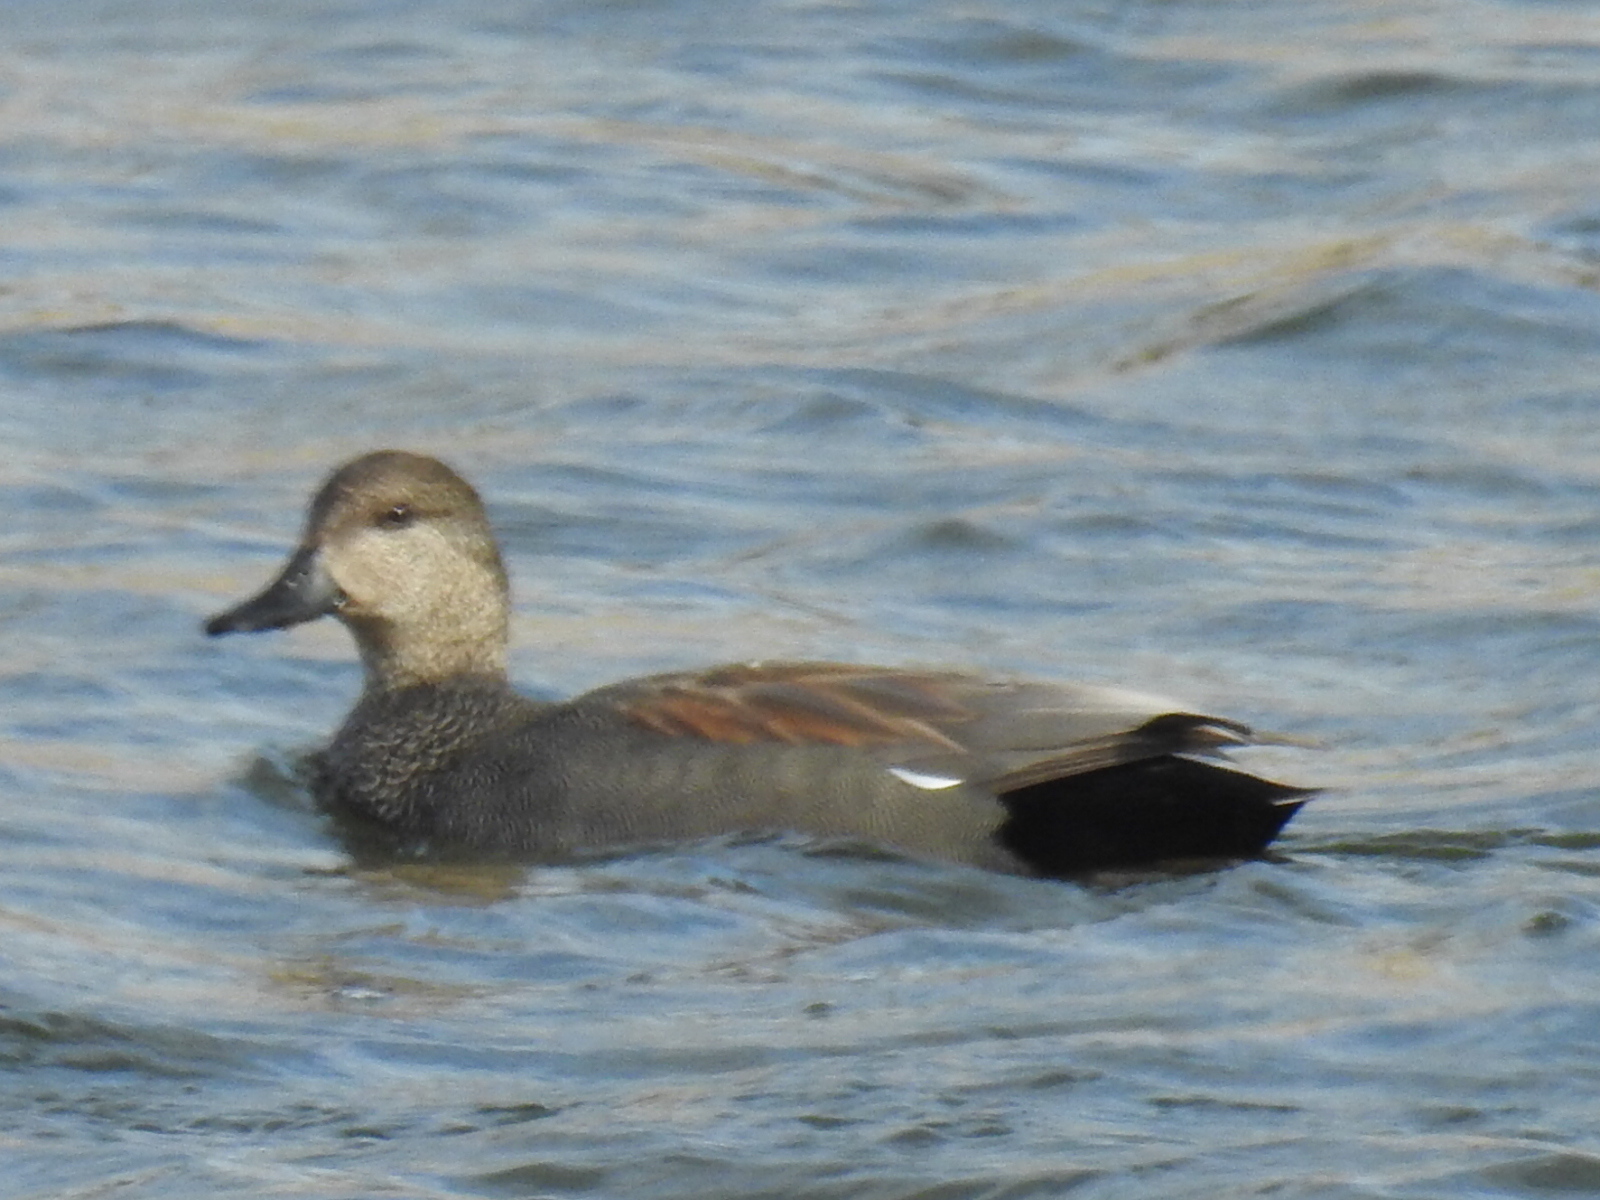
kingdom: Animalia
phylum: Chordata
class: Aves
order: Anseriformes
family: Anatidae
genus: Mareca
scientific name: Mareca strepera
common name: Gadwall
